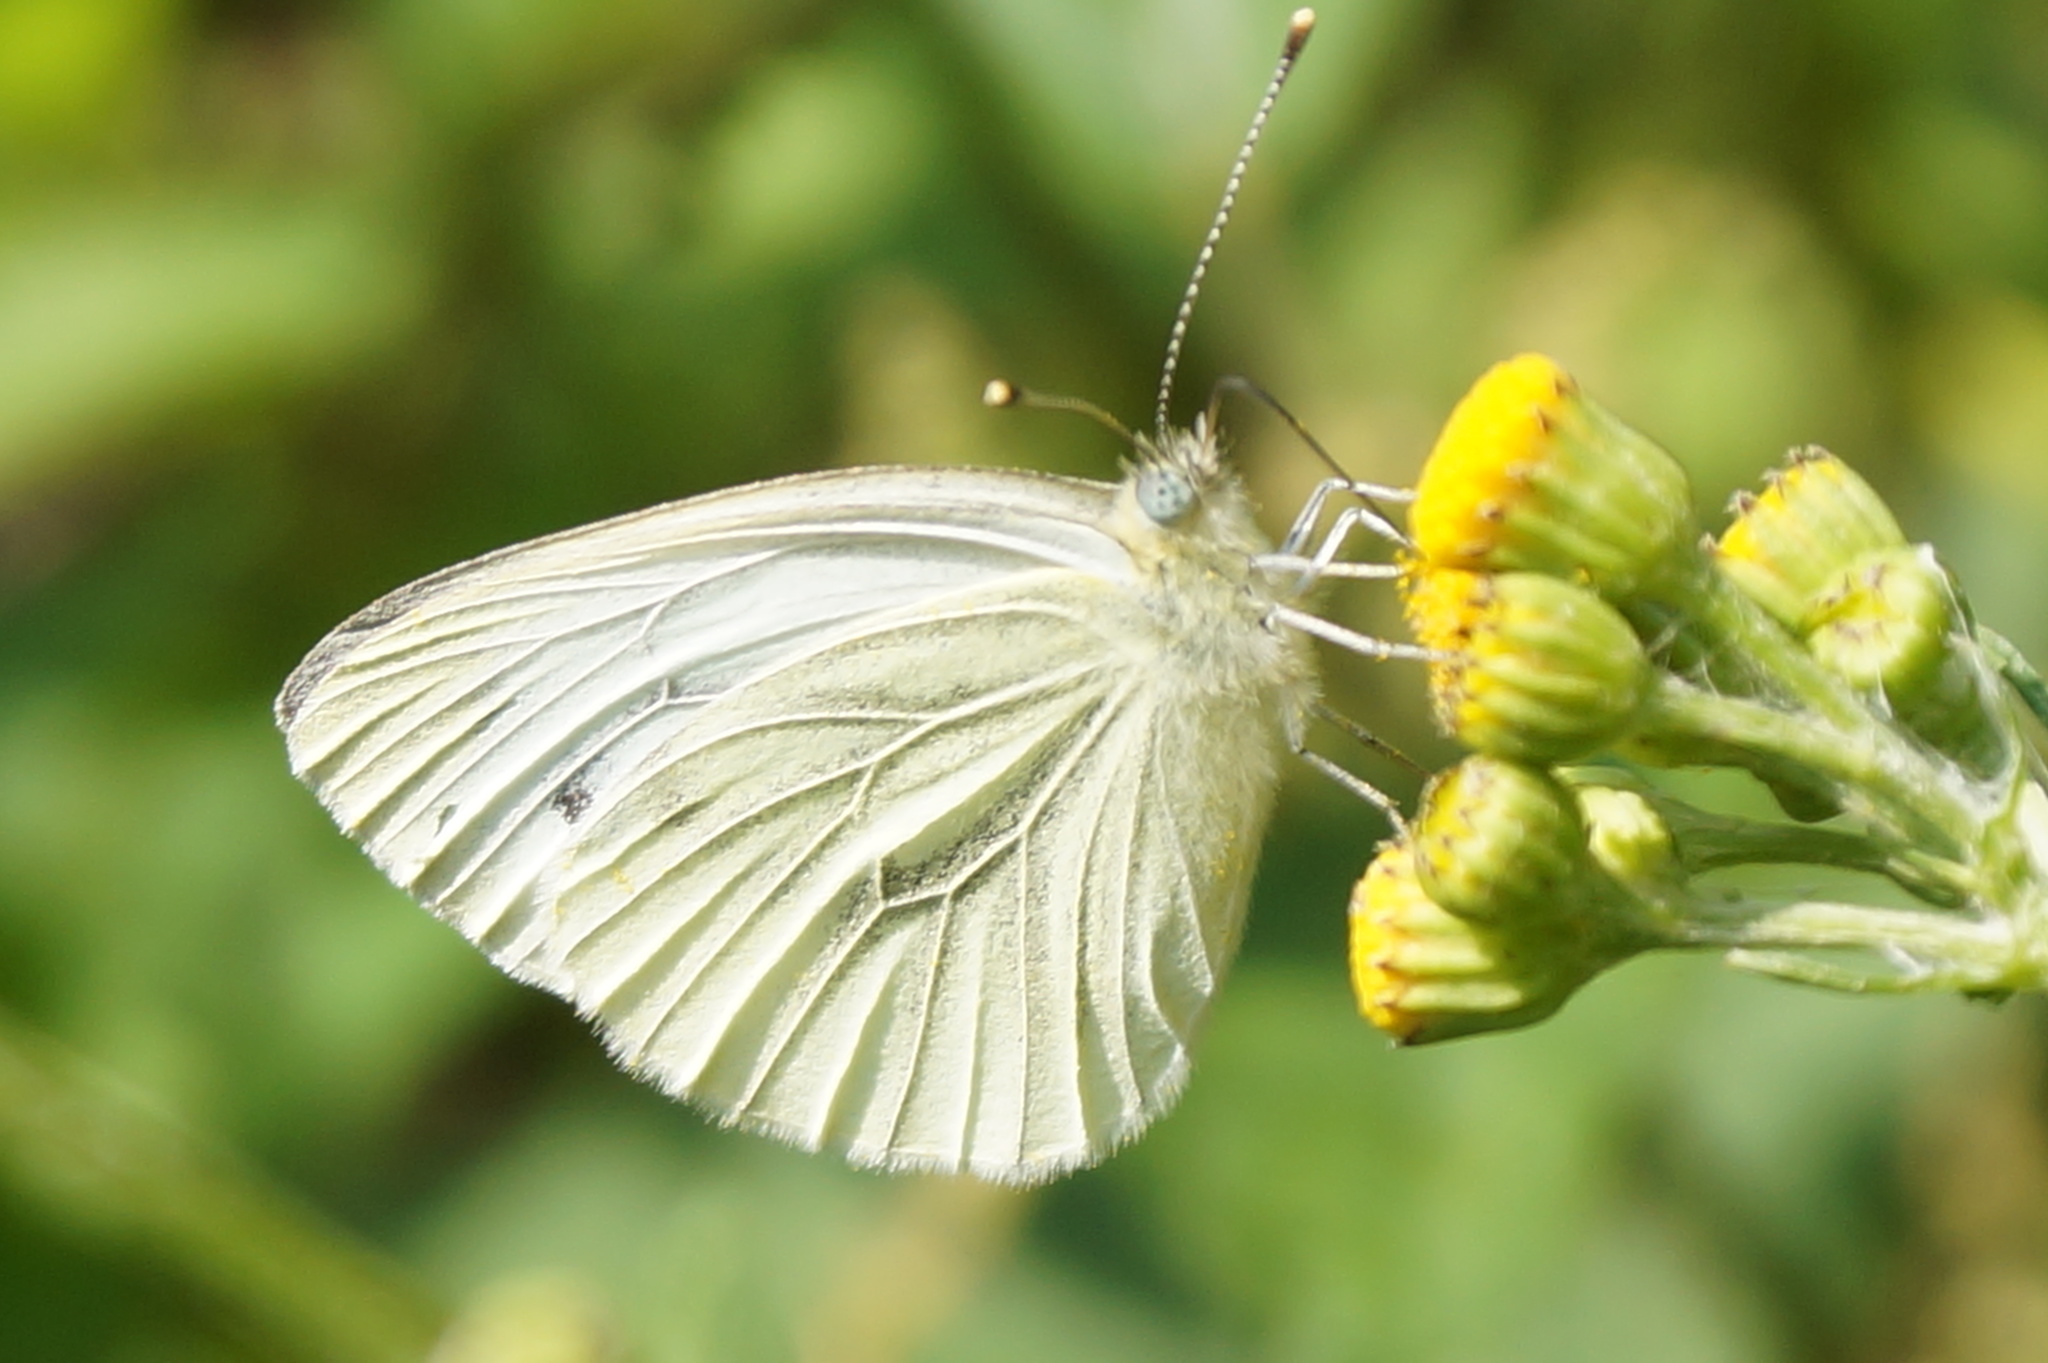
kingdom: Animalia
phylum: Arthropoda
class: Insecta
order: Lepidoptera
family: Pieridae
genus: Pieris
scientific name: Pieris napi
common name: Green-veined white
